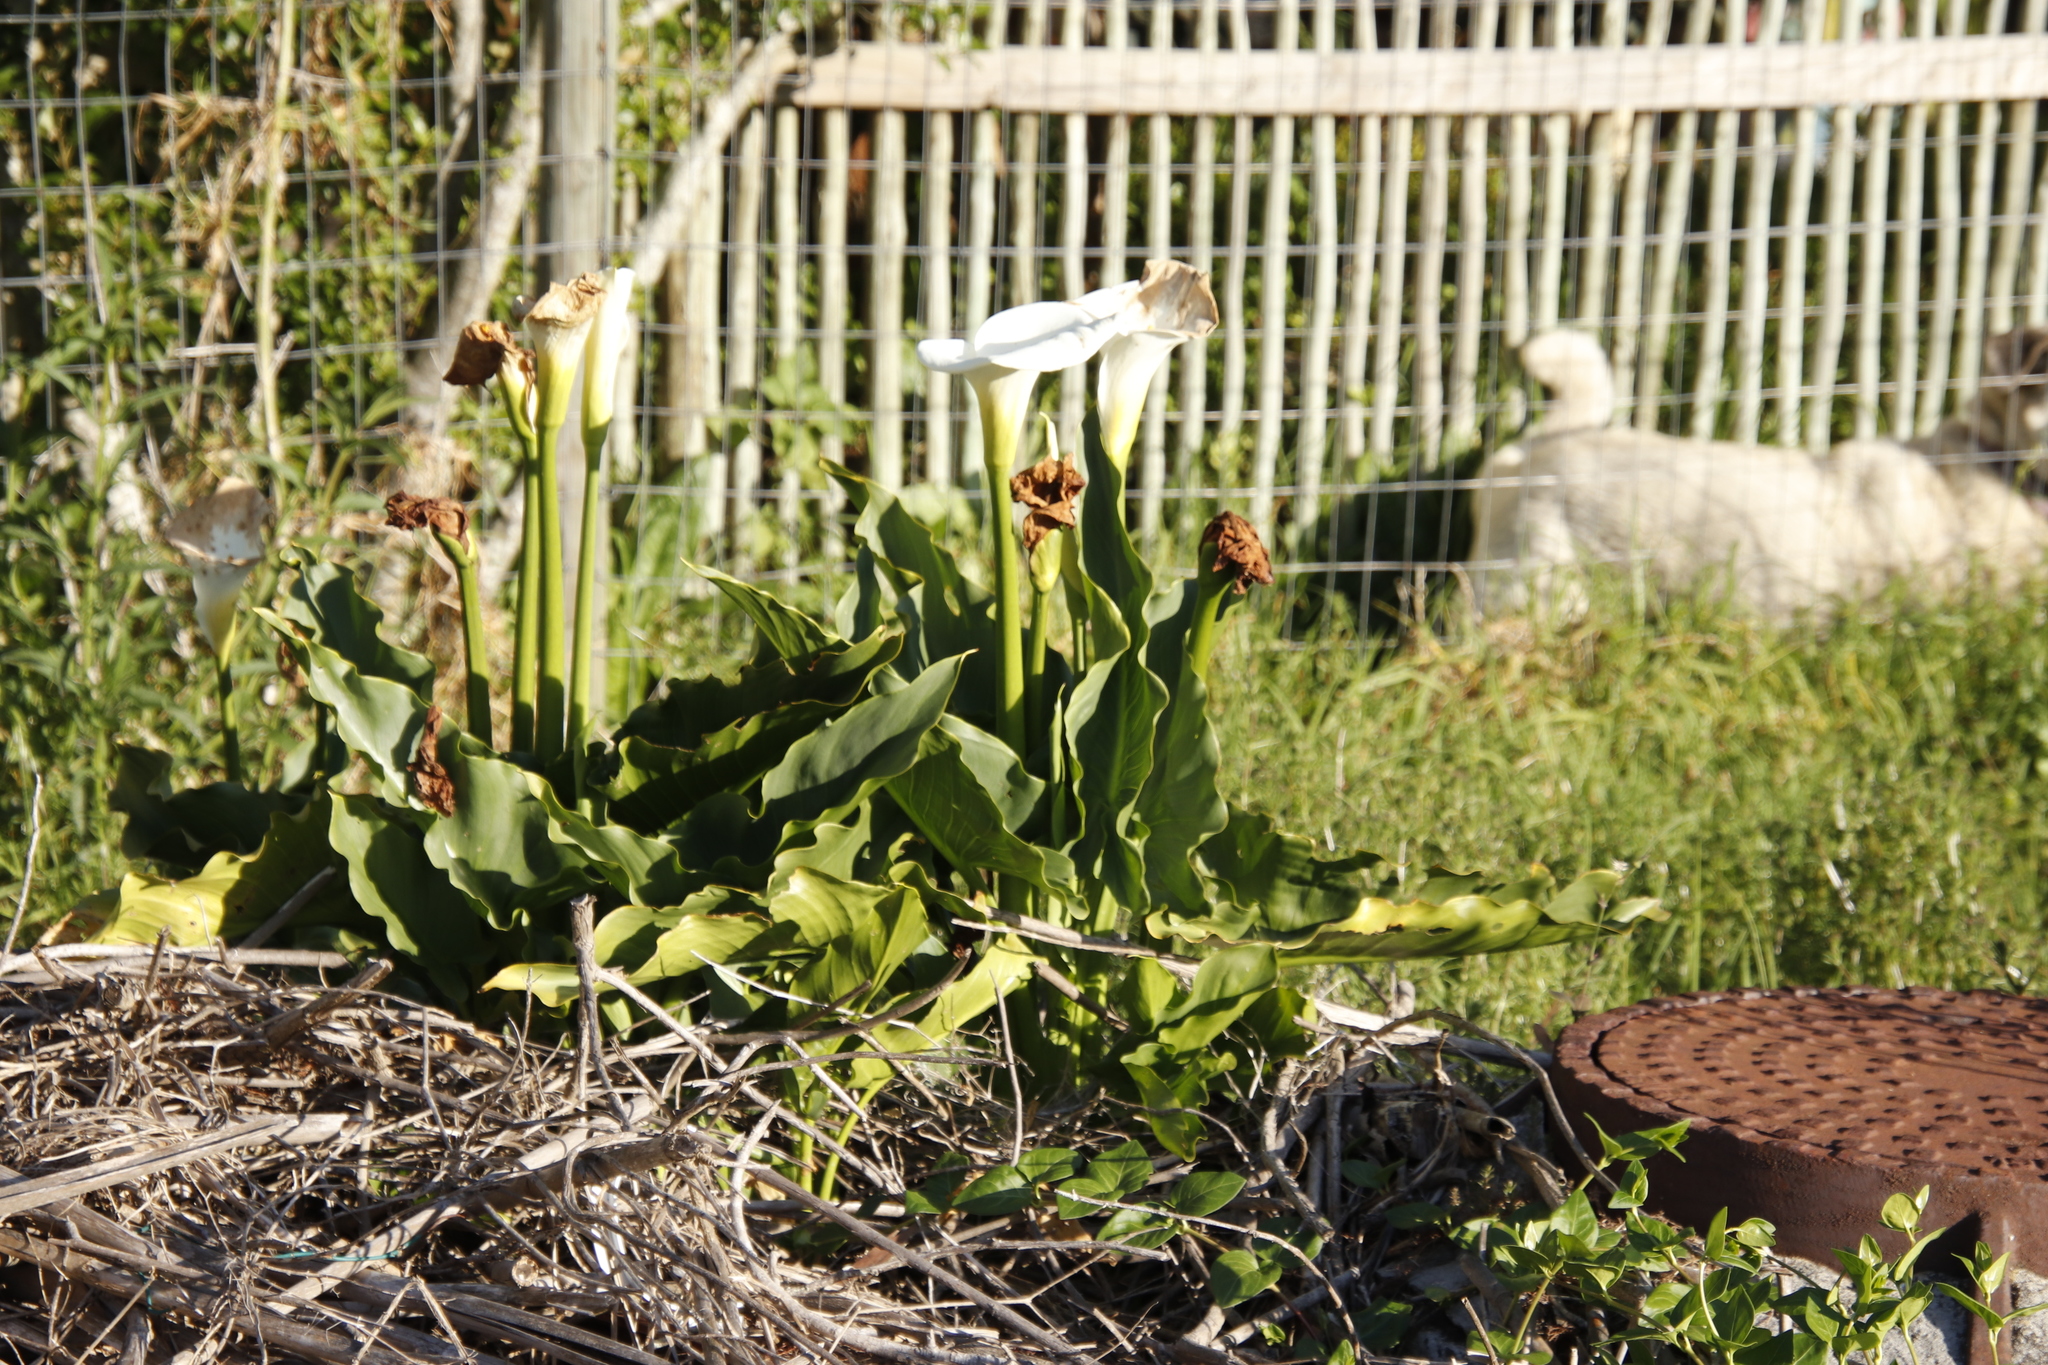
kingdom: Plantae
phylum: Tracheophyta
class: Liliopsida
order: Alismatales
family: Araceae
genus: Zantedeschia
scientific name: Zantedeschia aethiopica
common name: Altar-lily
